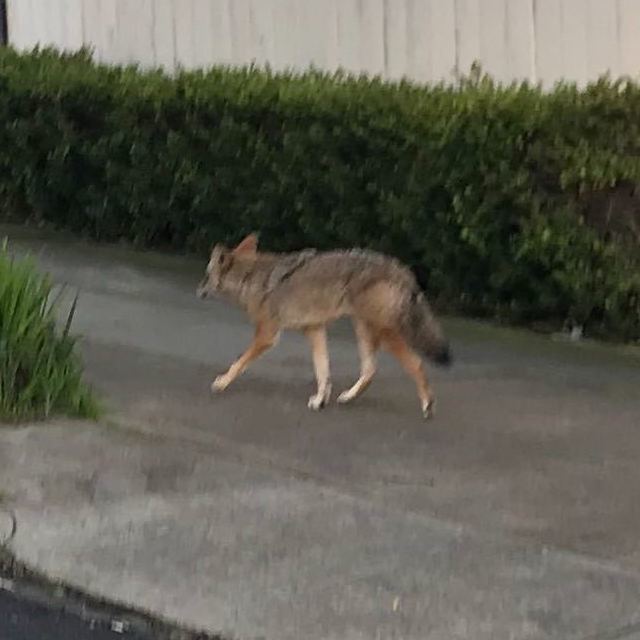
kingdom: Animalia
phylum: Chordata
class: Mammalia
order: Carnivora
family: Canidae
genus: Canis
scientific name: Canis latrans
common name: Coyote
